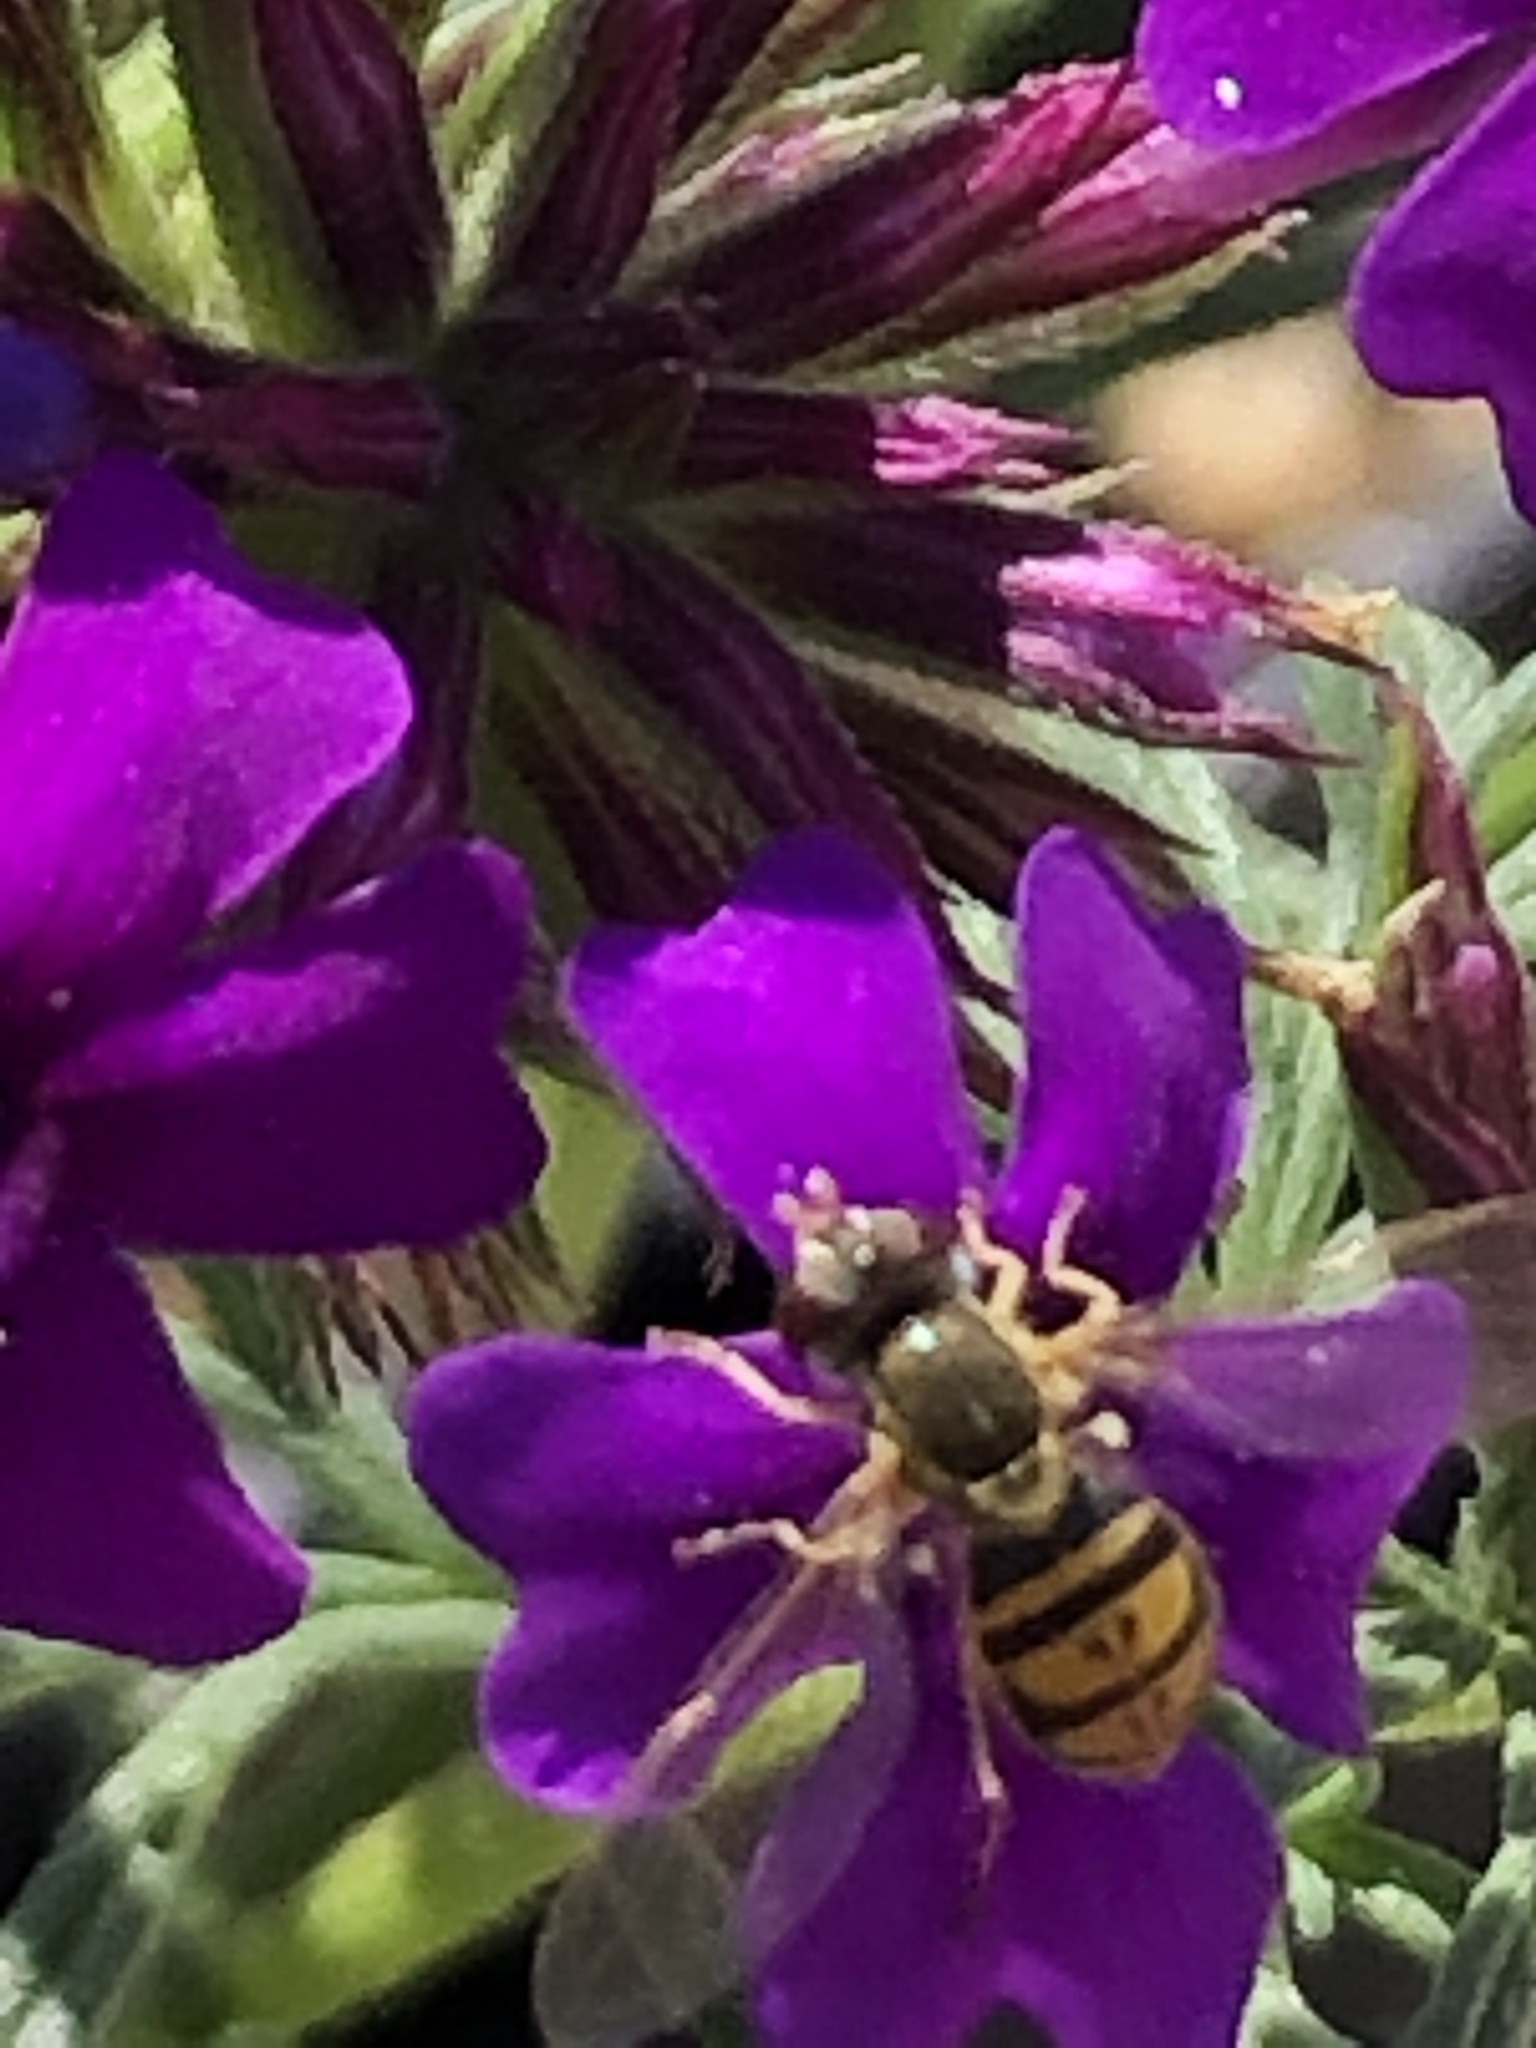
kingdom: Animalia
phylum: Arthropoda
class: Insecta
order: Diptera
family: Syrphidae
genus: Toxomerus
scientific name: Toxomerus marginatus
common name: Syrphid fly
